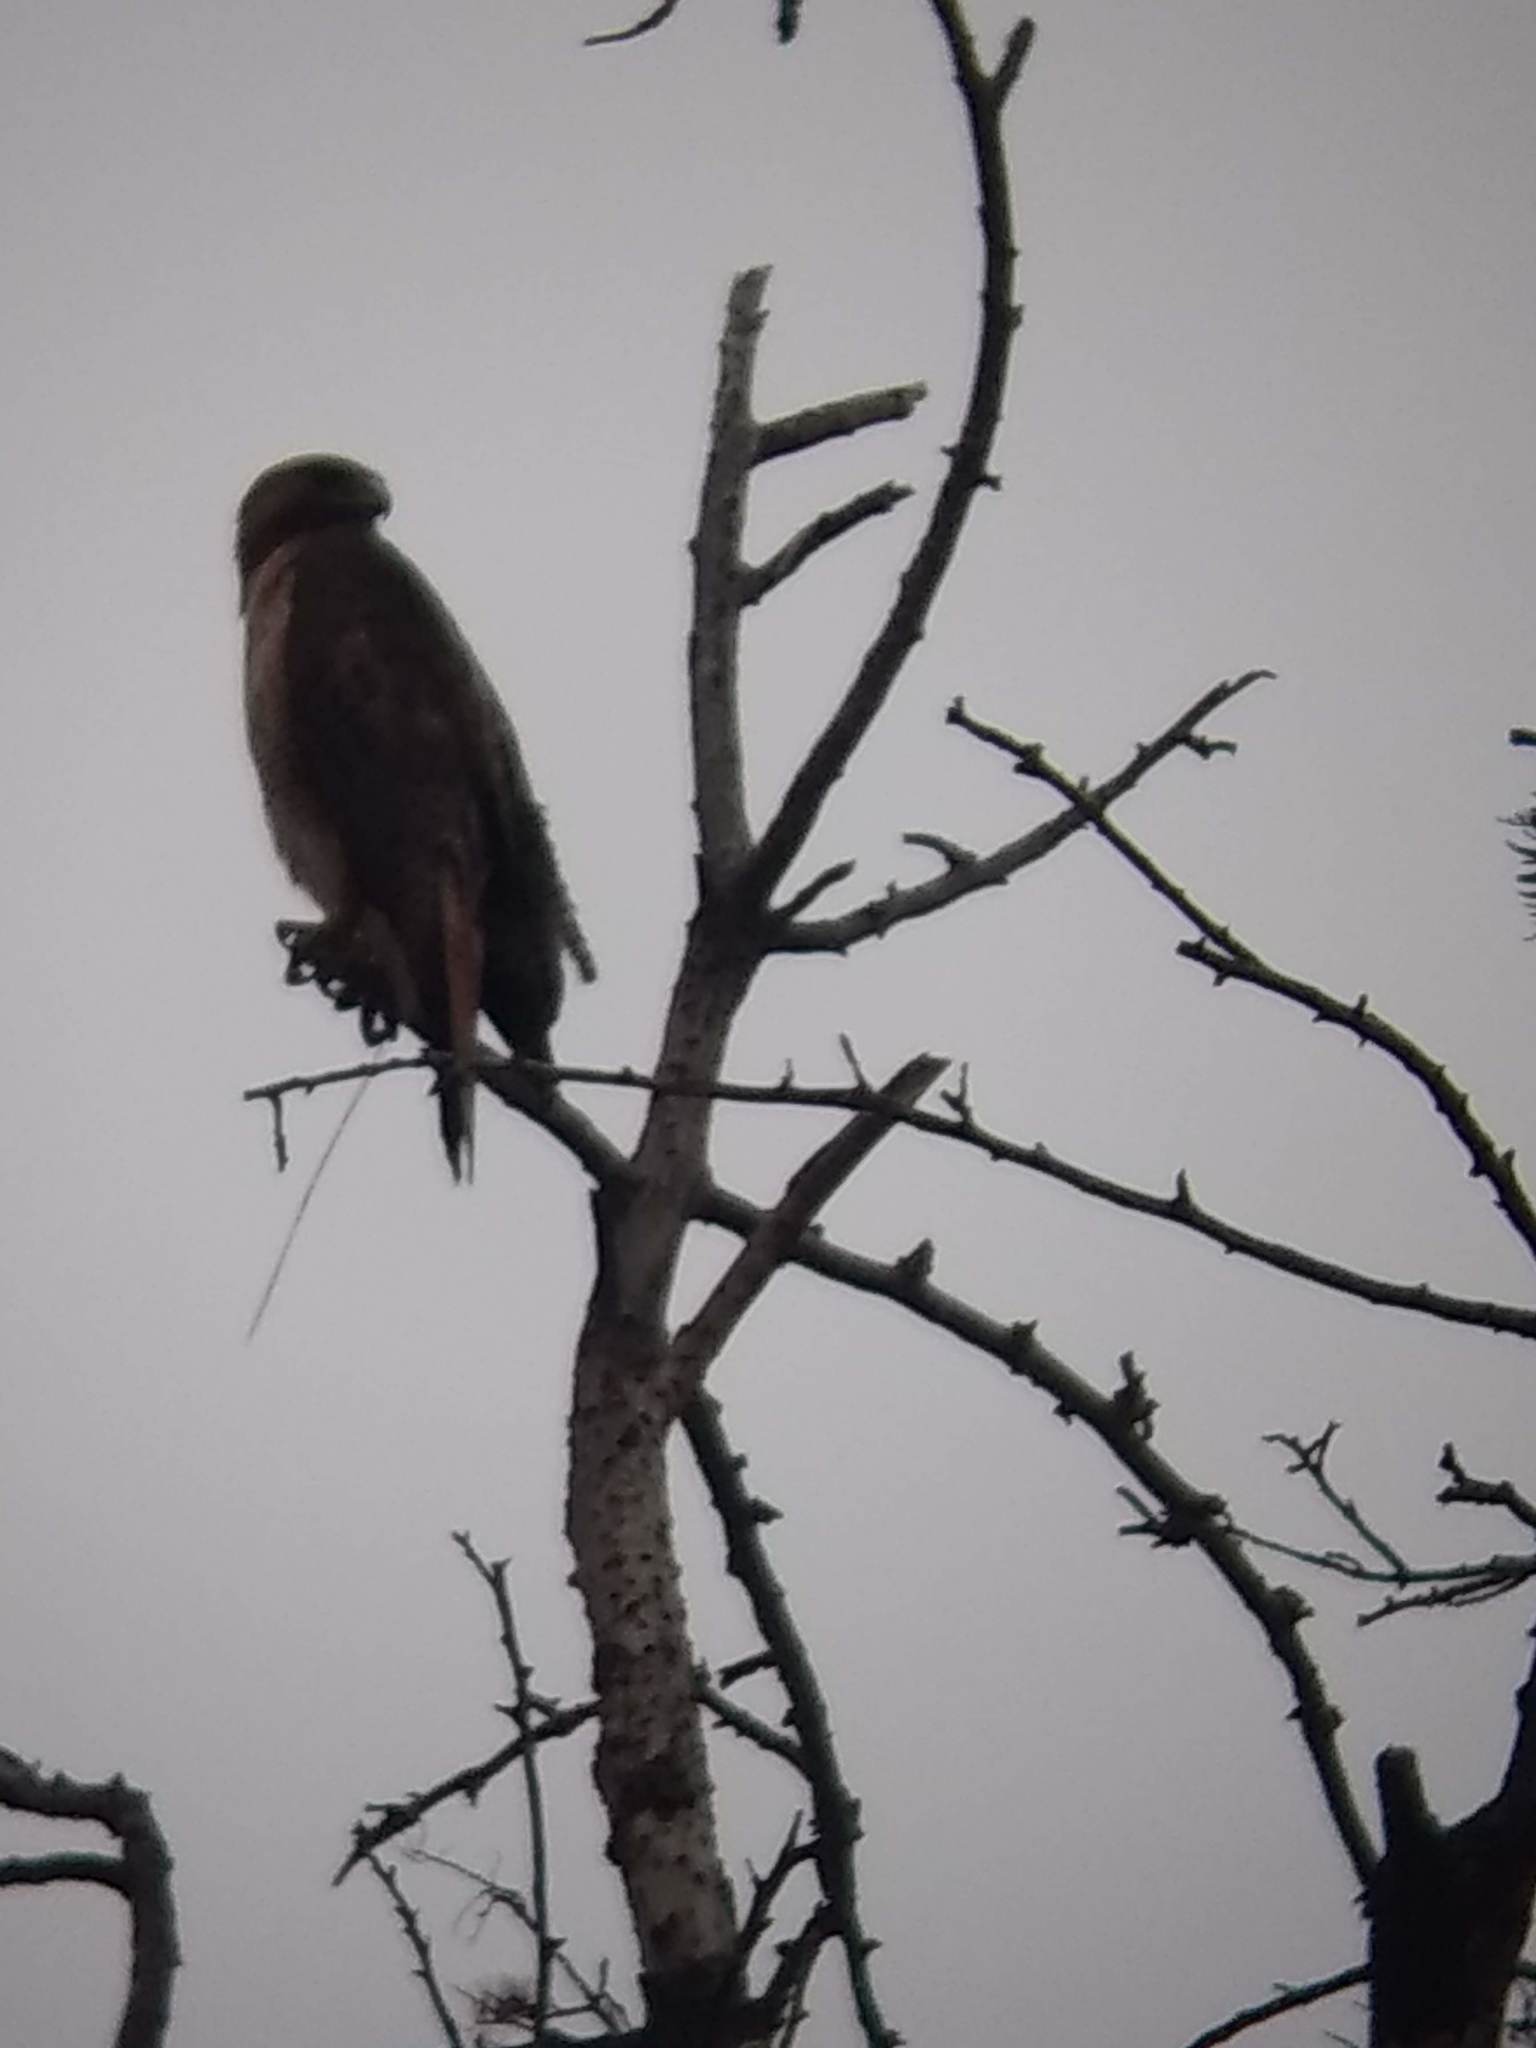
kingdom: Animalia
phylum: Chordata
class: Aves
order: Accipitriformes
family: Accipitridae
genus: Buteo
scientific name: Buteo jamaicensis
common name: Red-tailed hawk
